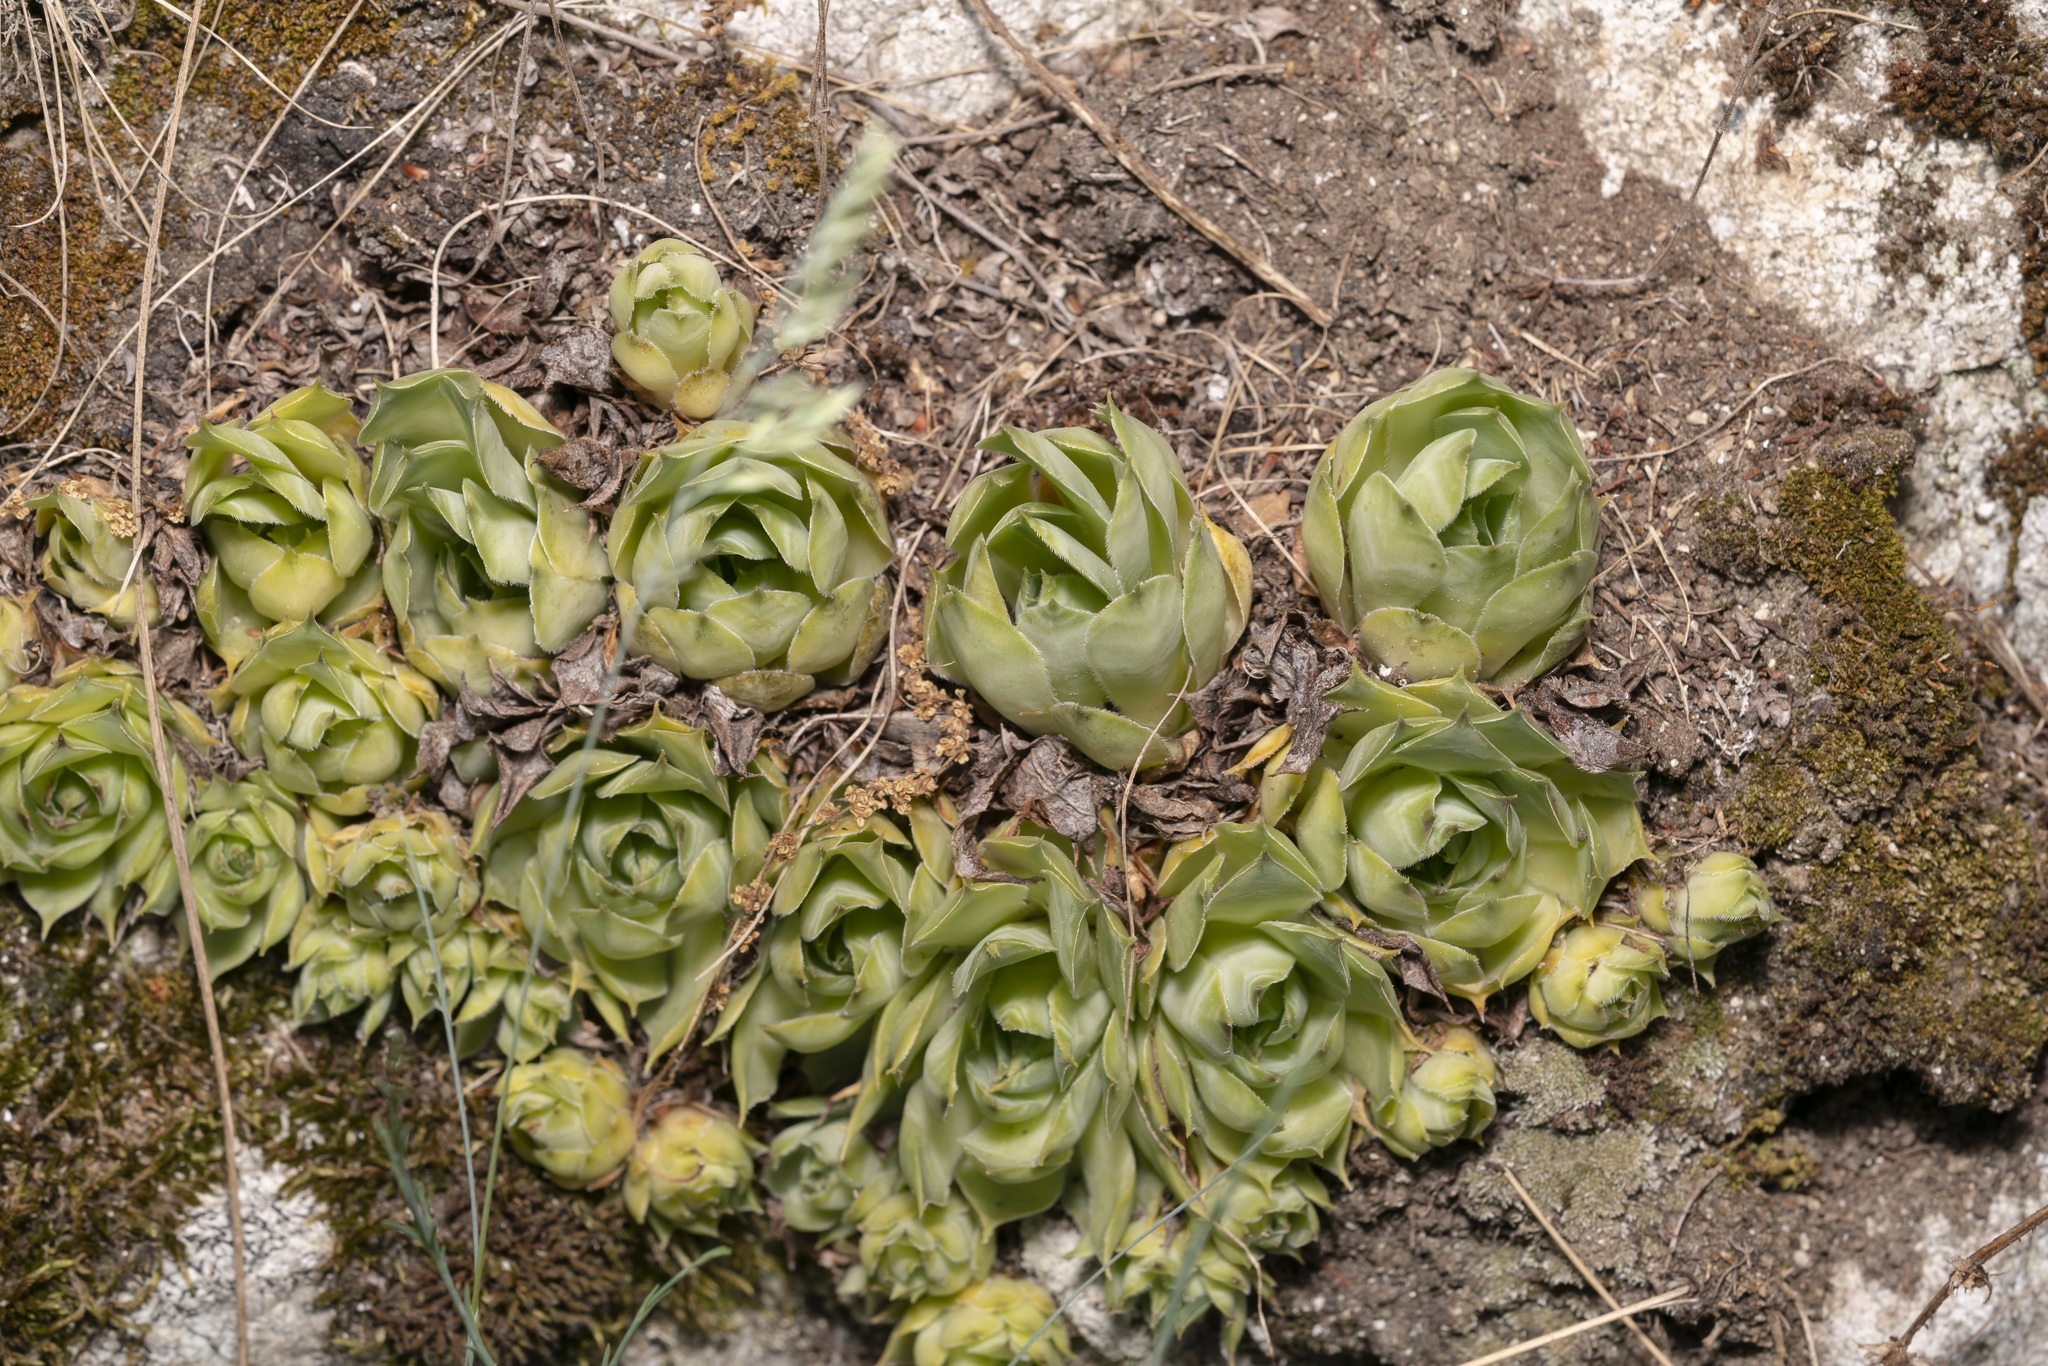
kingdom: Plantae
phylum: Tracheophyta
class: Magnoliopsida
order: Saxifragales
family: Crassulaceae
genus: Sempervivum
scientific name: Sempervivum tectorum
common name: House-leek
